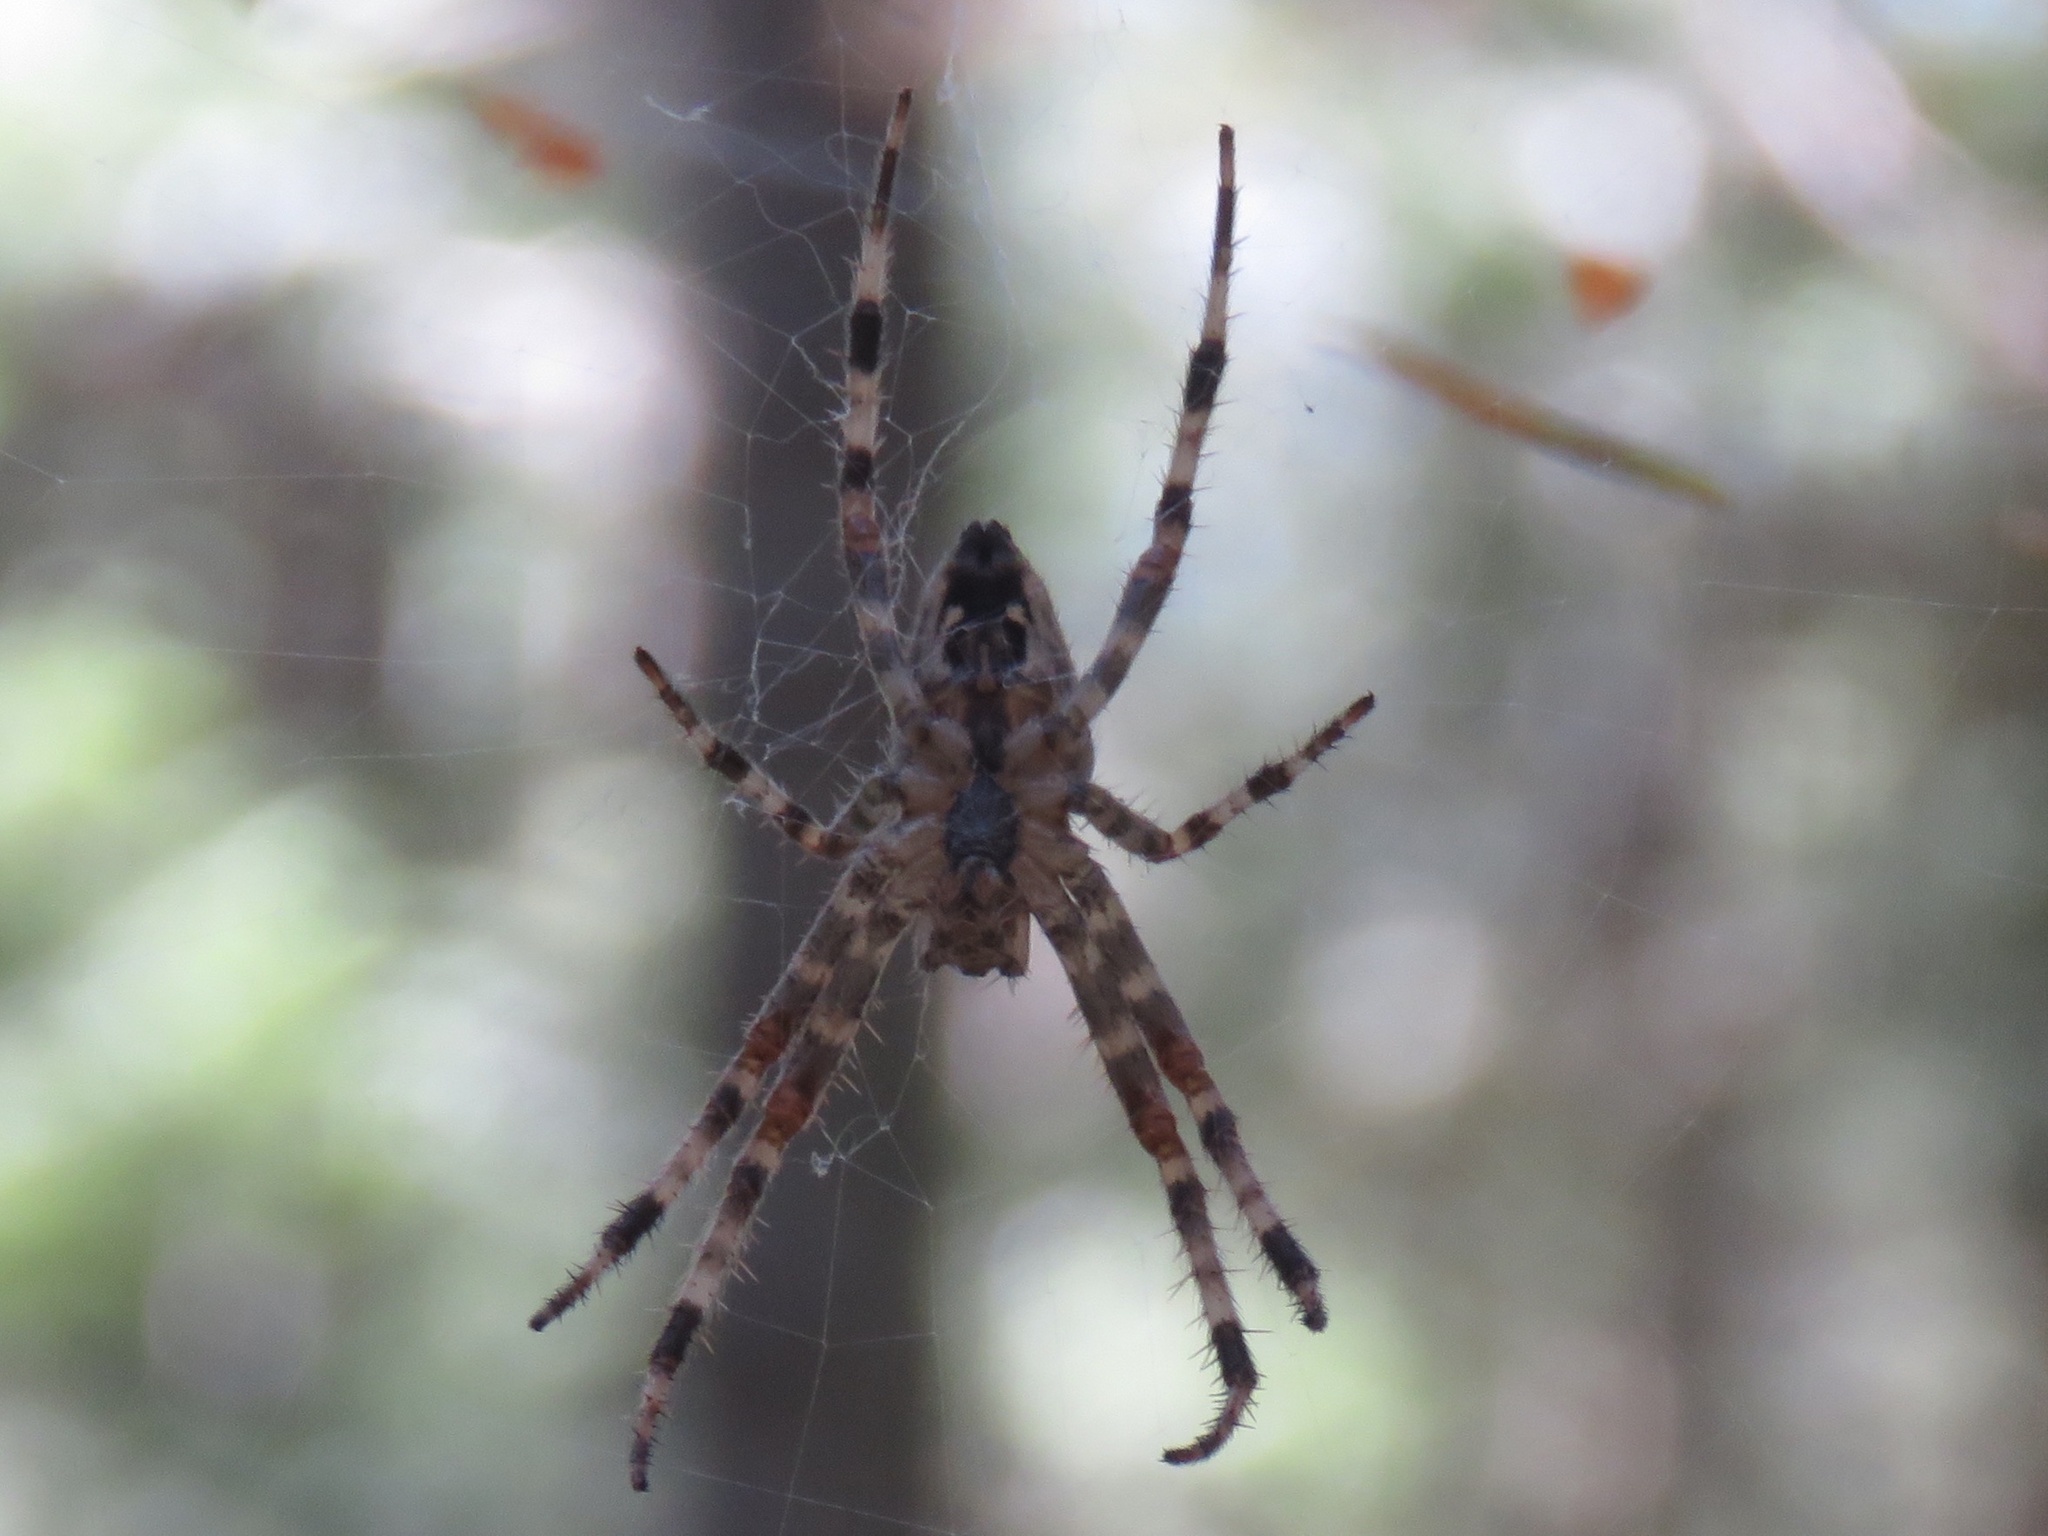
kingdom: Animalia
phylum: Arthropoda
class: Arachnida
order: Araneae
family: Araneidae
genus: Araneus
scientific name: Araneus diadematus
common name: Cross orbweaver
